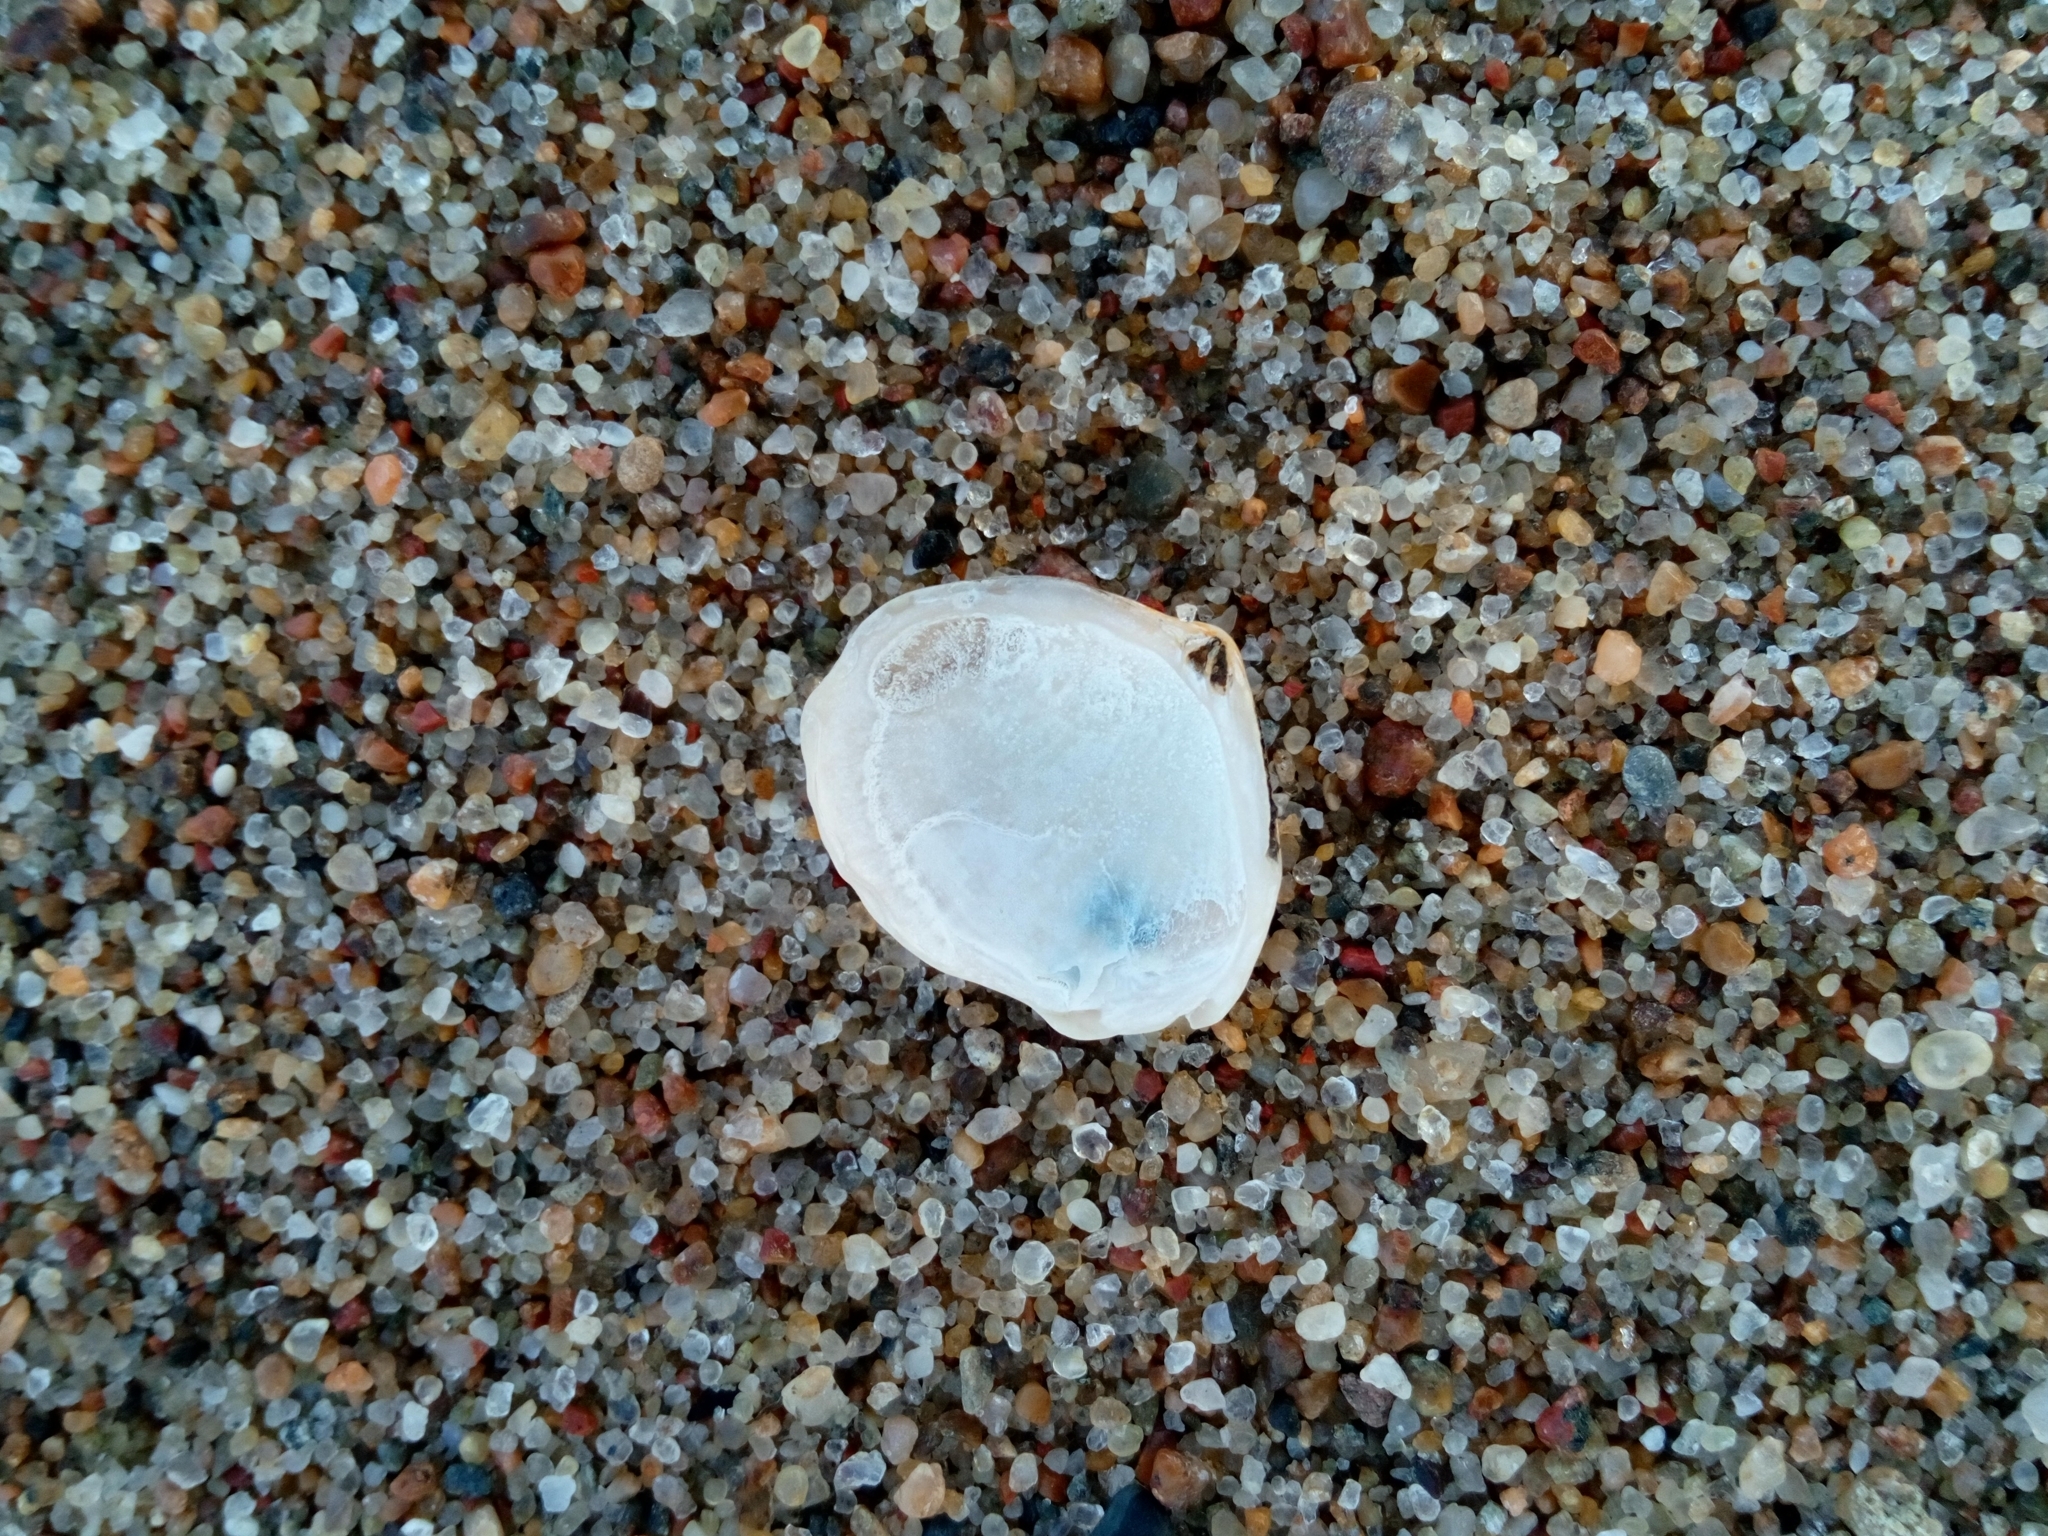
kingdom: Animalia
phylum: Mollusca
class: Bivalvia
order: Cardiida
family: Tellinidae
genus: Macoma
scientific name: Macoma balthica
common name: Baltic tellin
